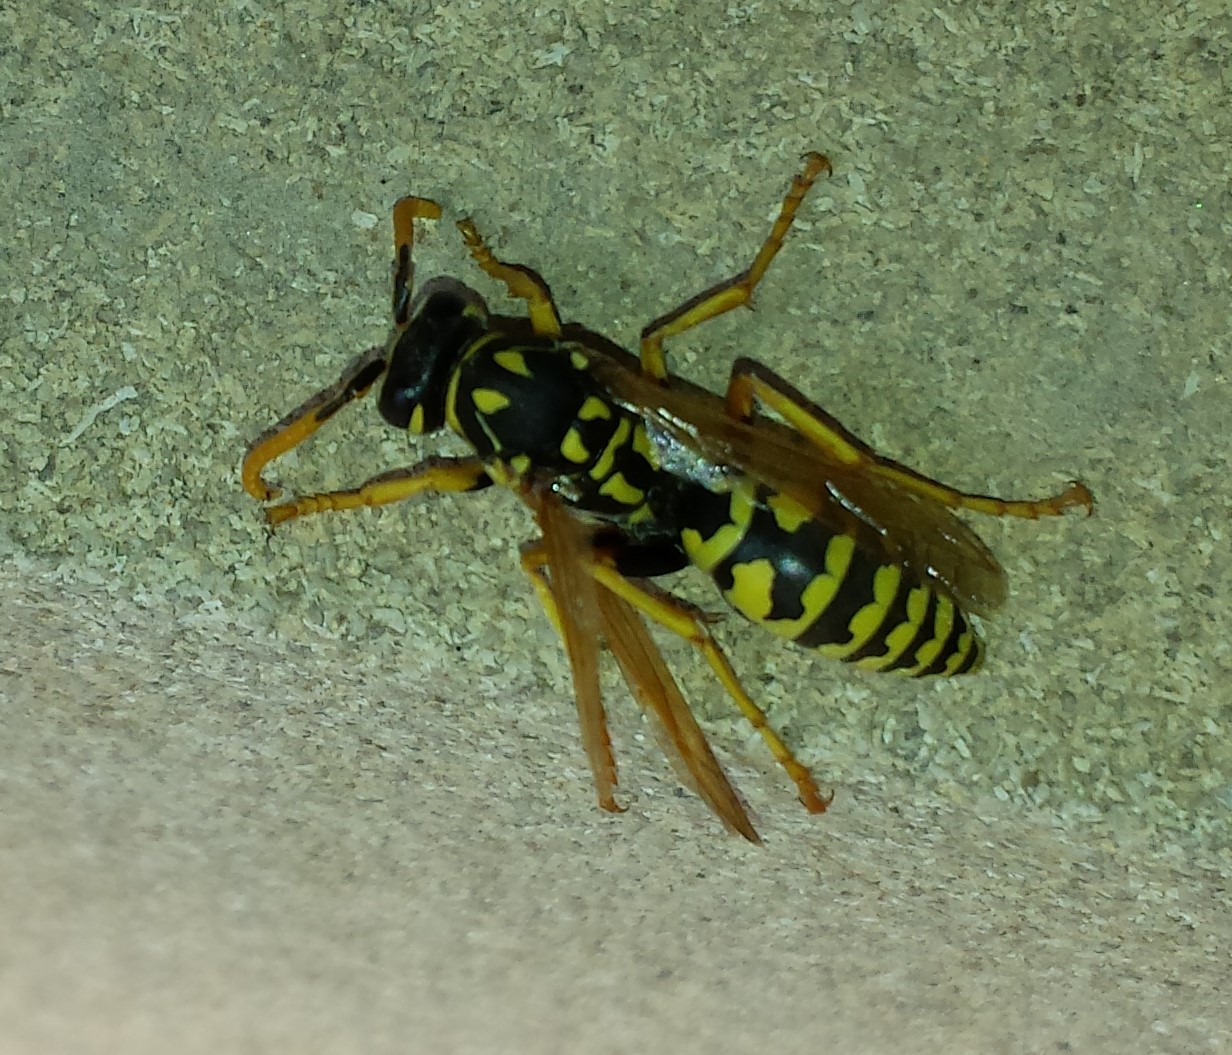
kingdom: Animalia
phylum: Arthropoda
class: Insecta
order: Hymenoptera
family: Eumenidae
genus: Polistes
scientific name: Polistes dominula
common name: Paper wasp
